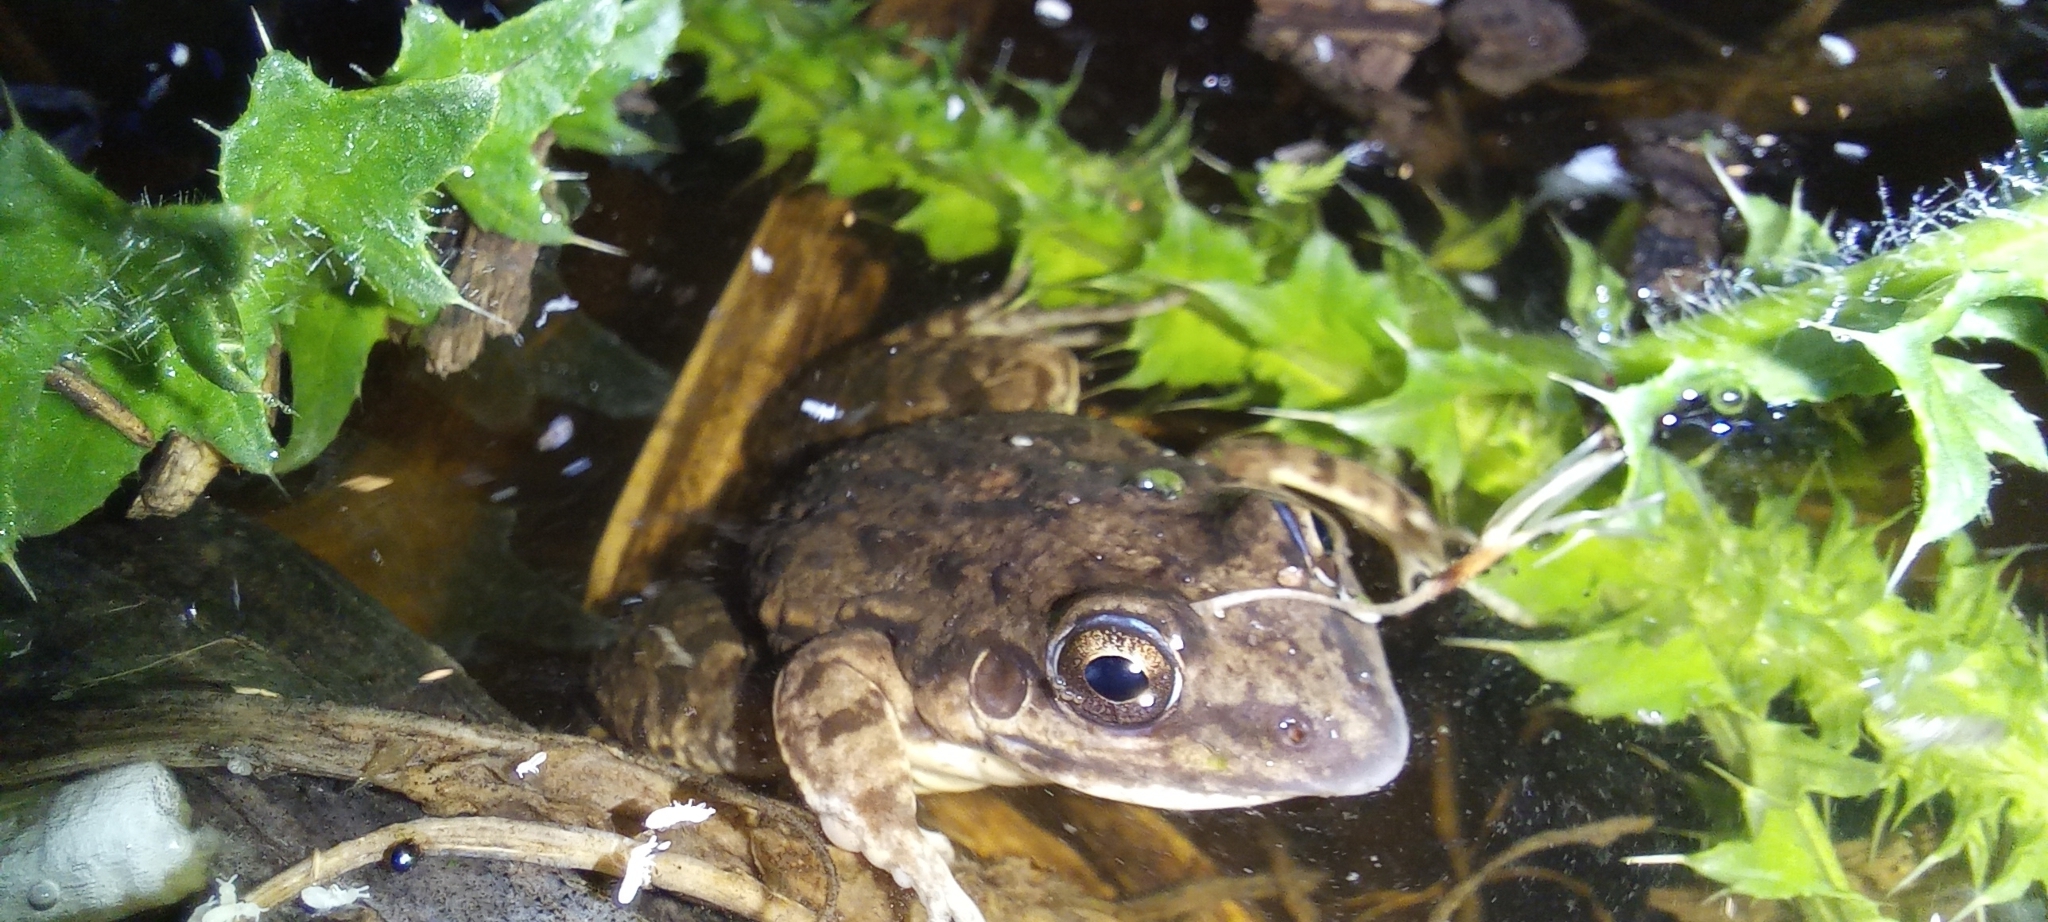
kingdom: Animalia
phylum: Chordata
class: Amphibia
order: Anura
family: Leptodactylidae
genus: Leptodactylus
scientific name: Leptodactylus latinasus
